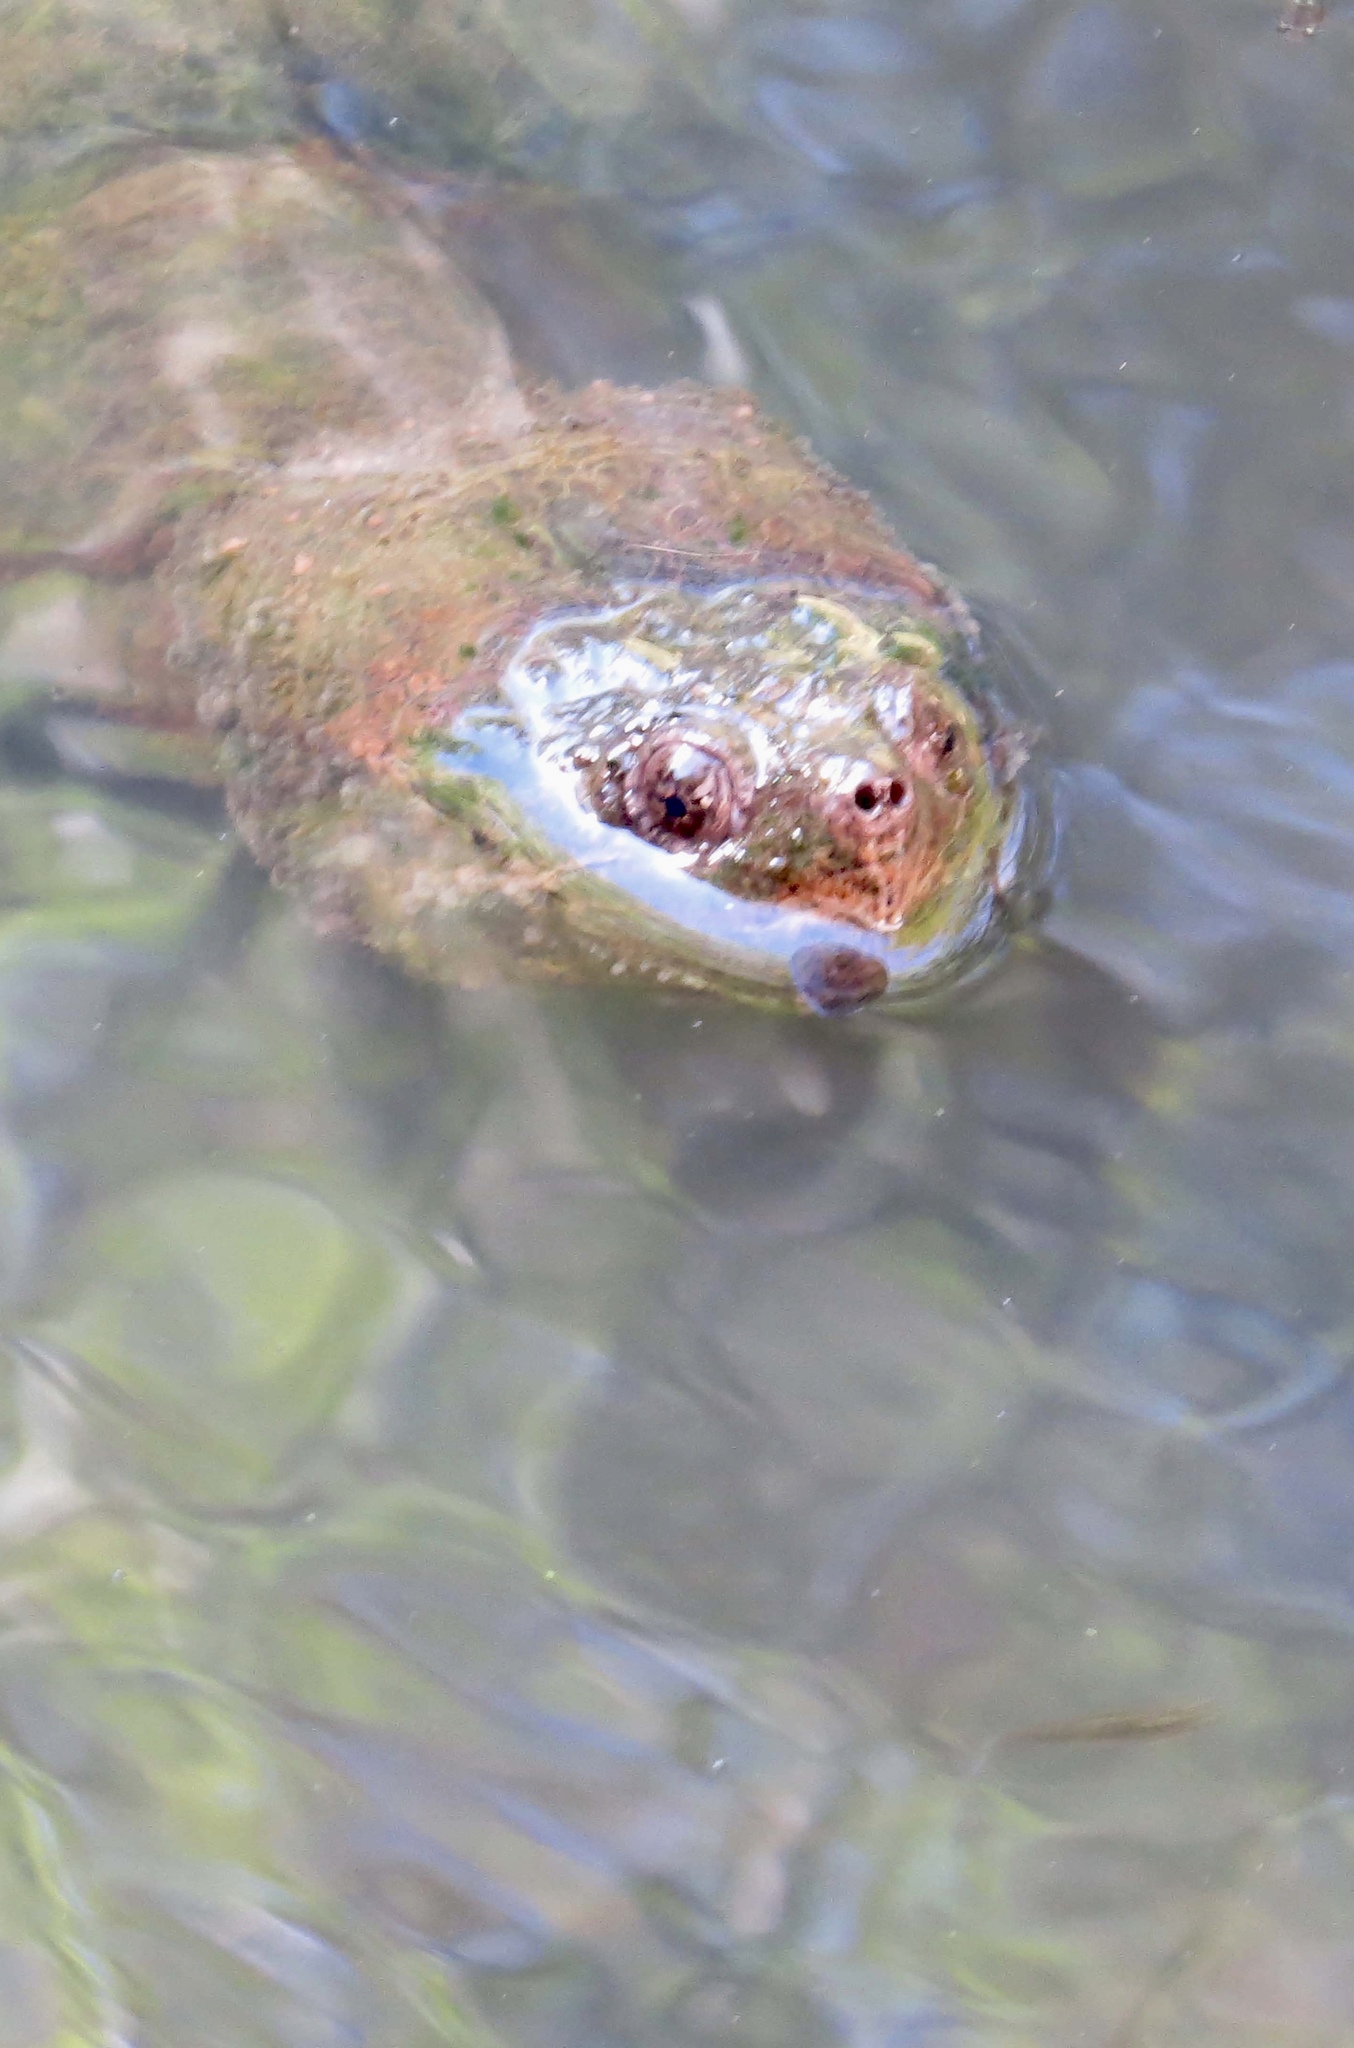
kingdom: Animalia
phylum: Chordata
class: Testudines
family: Chelydridae
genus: Chelydra
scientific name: Chelydra serpentina
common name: Common snapping turtle
